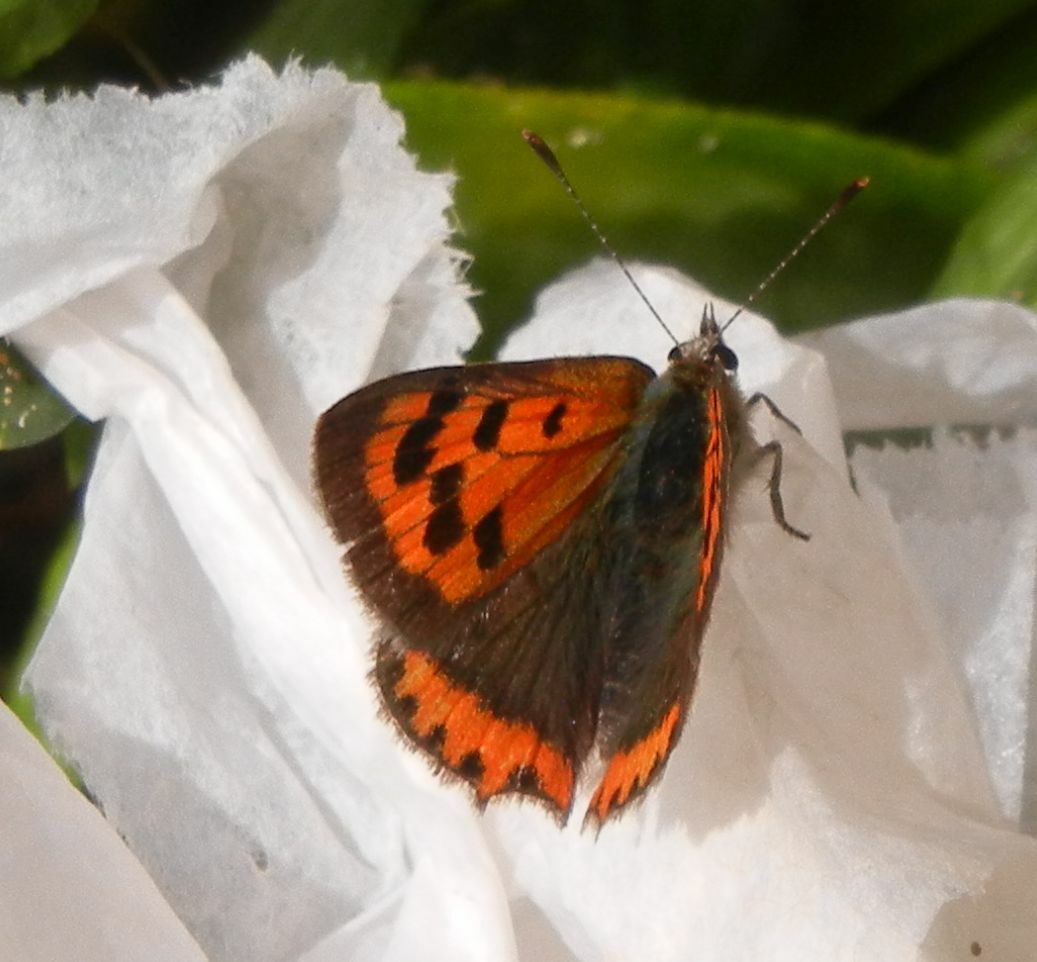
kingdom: Animalia
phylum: Arthropoda
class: Insecta
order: Lepidoptera
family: Lycaenidae
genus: Lycaena
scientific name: Lycaena phlaeas
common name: Small copper
